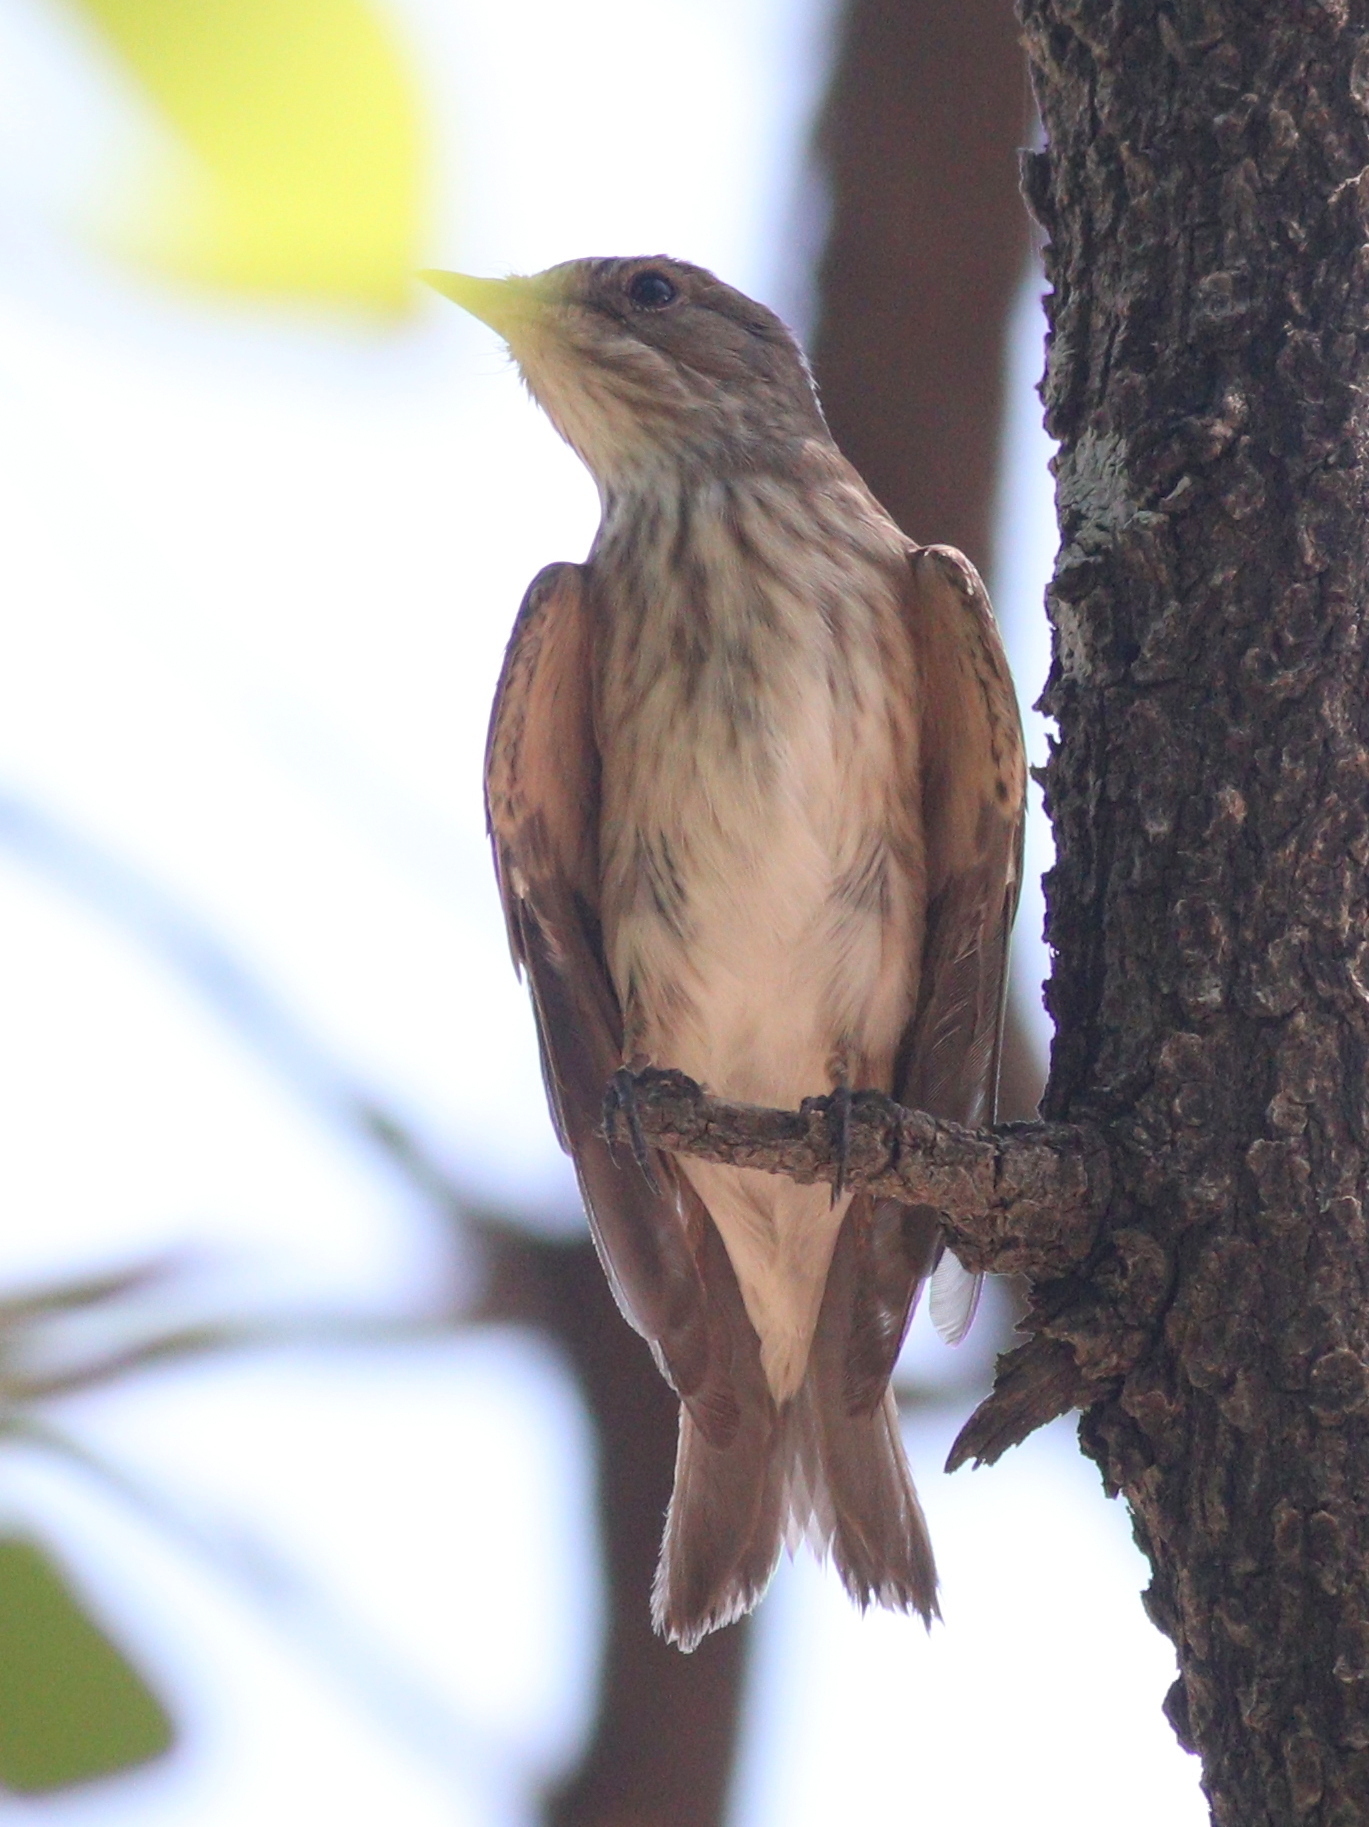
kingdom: Animalia
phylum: Chordata
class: Aves
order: Passeriformes
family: Muscicapidae
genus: Muscicapa
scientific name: Muscicapa striata
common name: Spotted flycatcher
